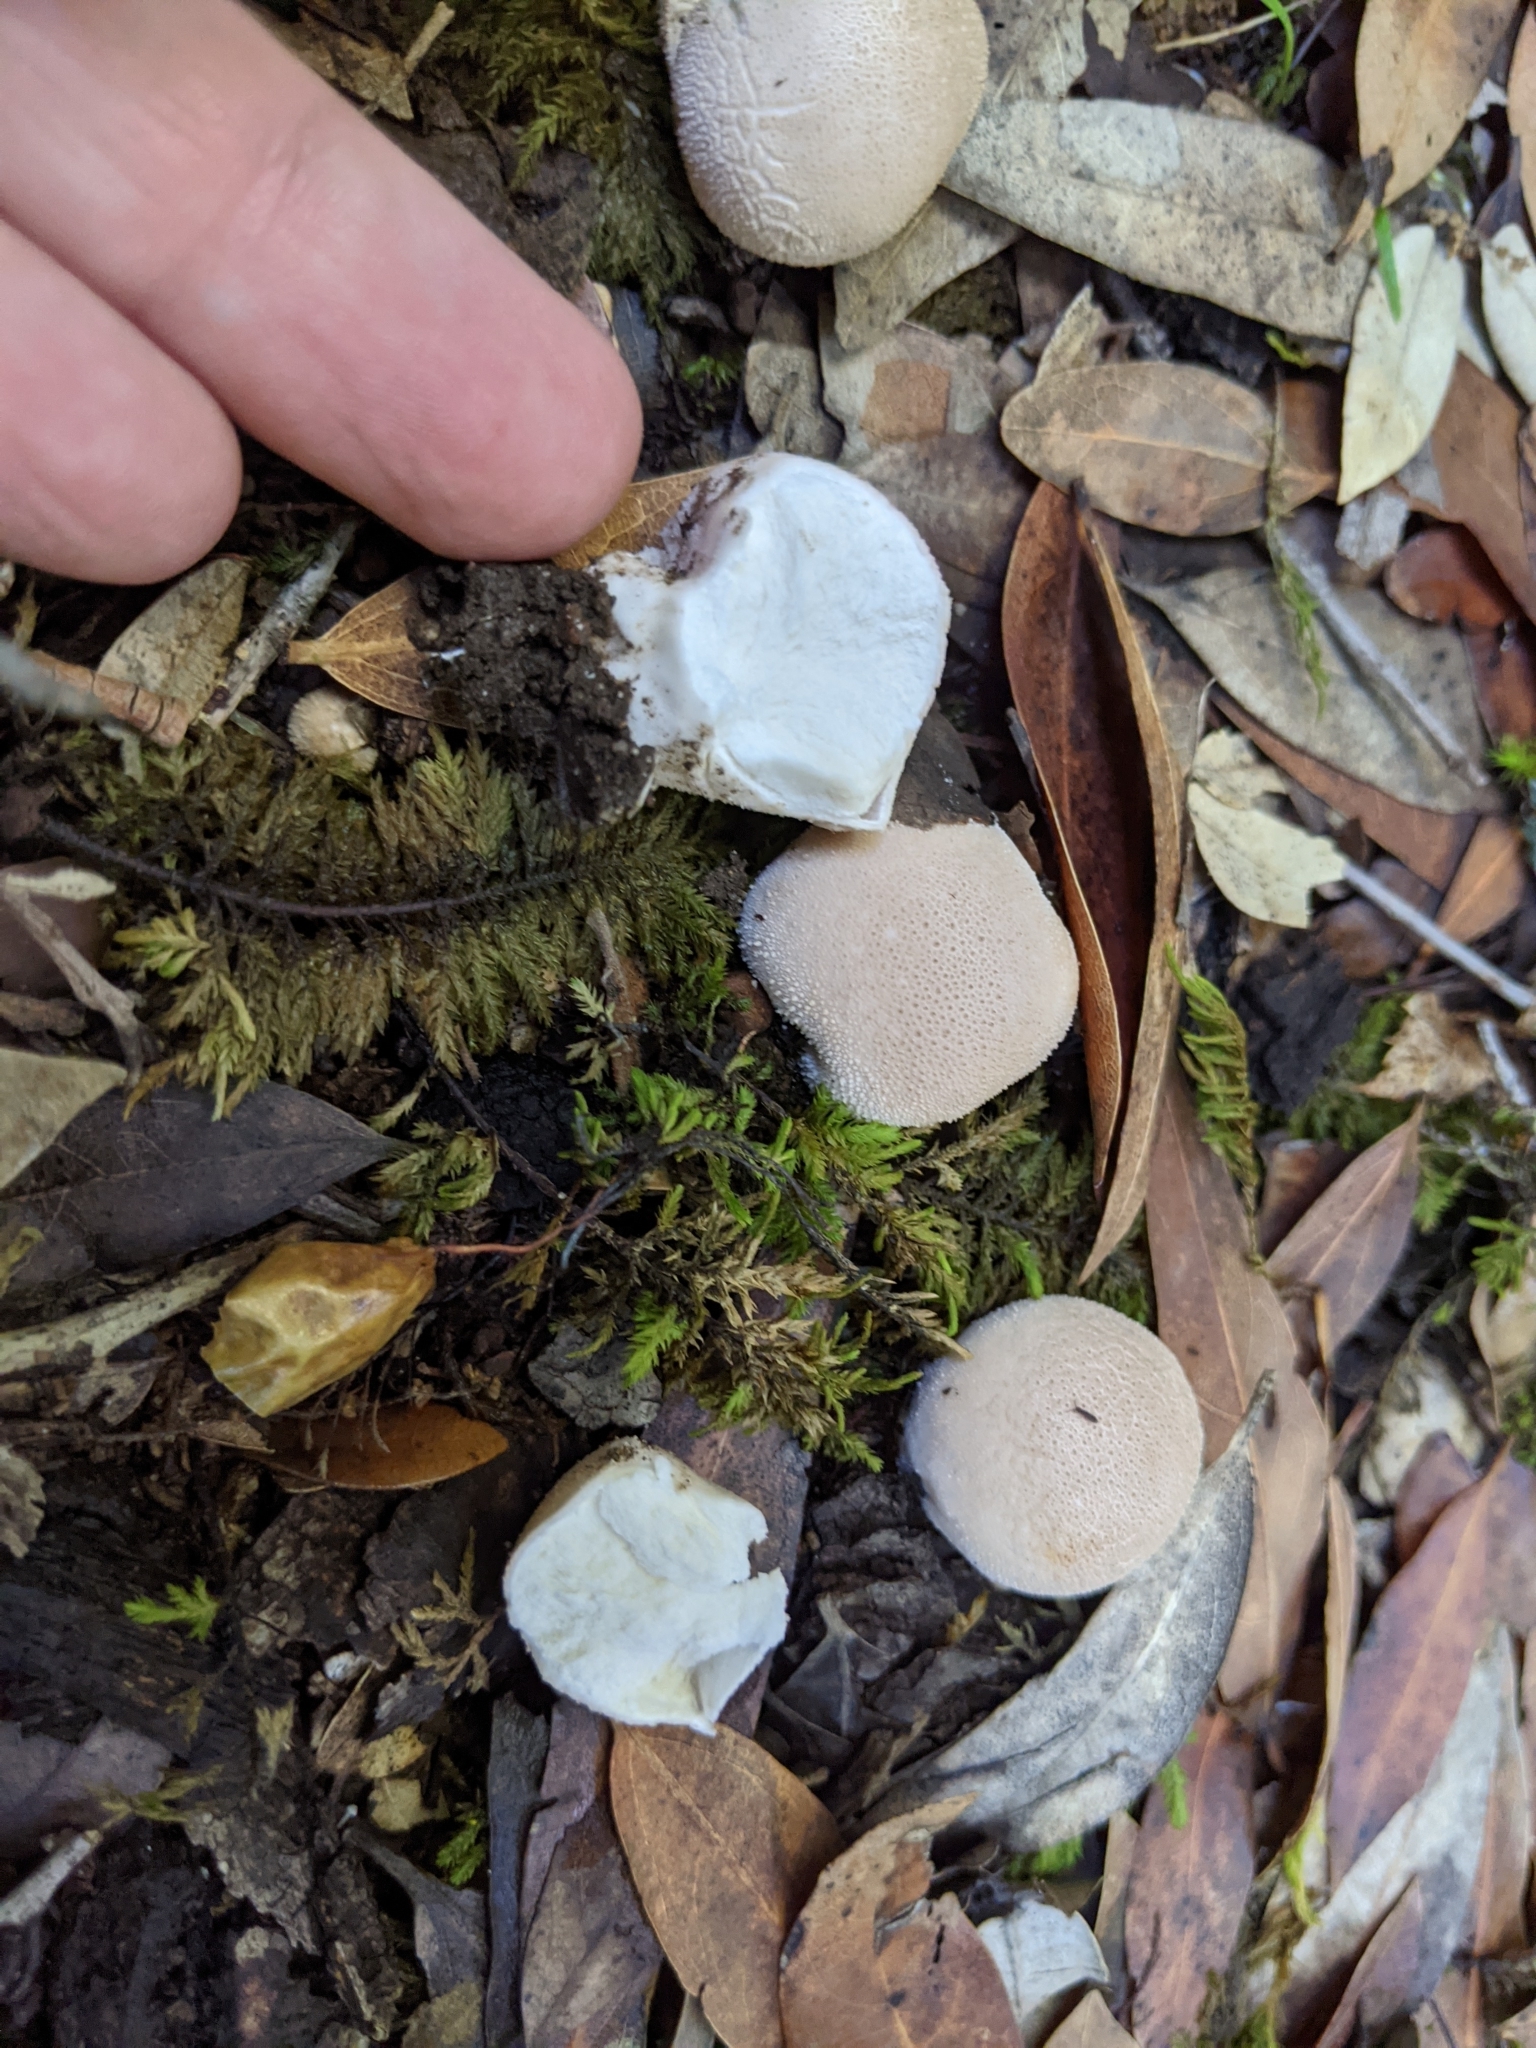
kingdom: Fungi
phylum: Basidiomycota
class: Agaricomycetes
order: Agaricales
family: Lycoperdaceae
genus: Lycoperdon
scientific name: Lycoperdon perlatum
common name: Common puffball
